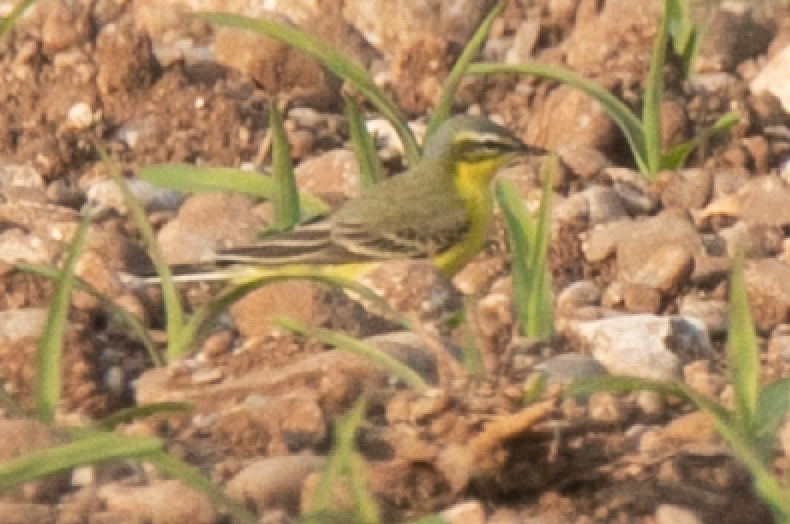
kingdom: Animalia
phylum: Chordata
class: Aves
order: Passeriformes
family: Motacillidae
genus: Motacilla
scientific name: Motacilla flava
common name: Western yellow wagtail
